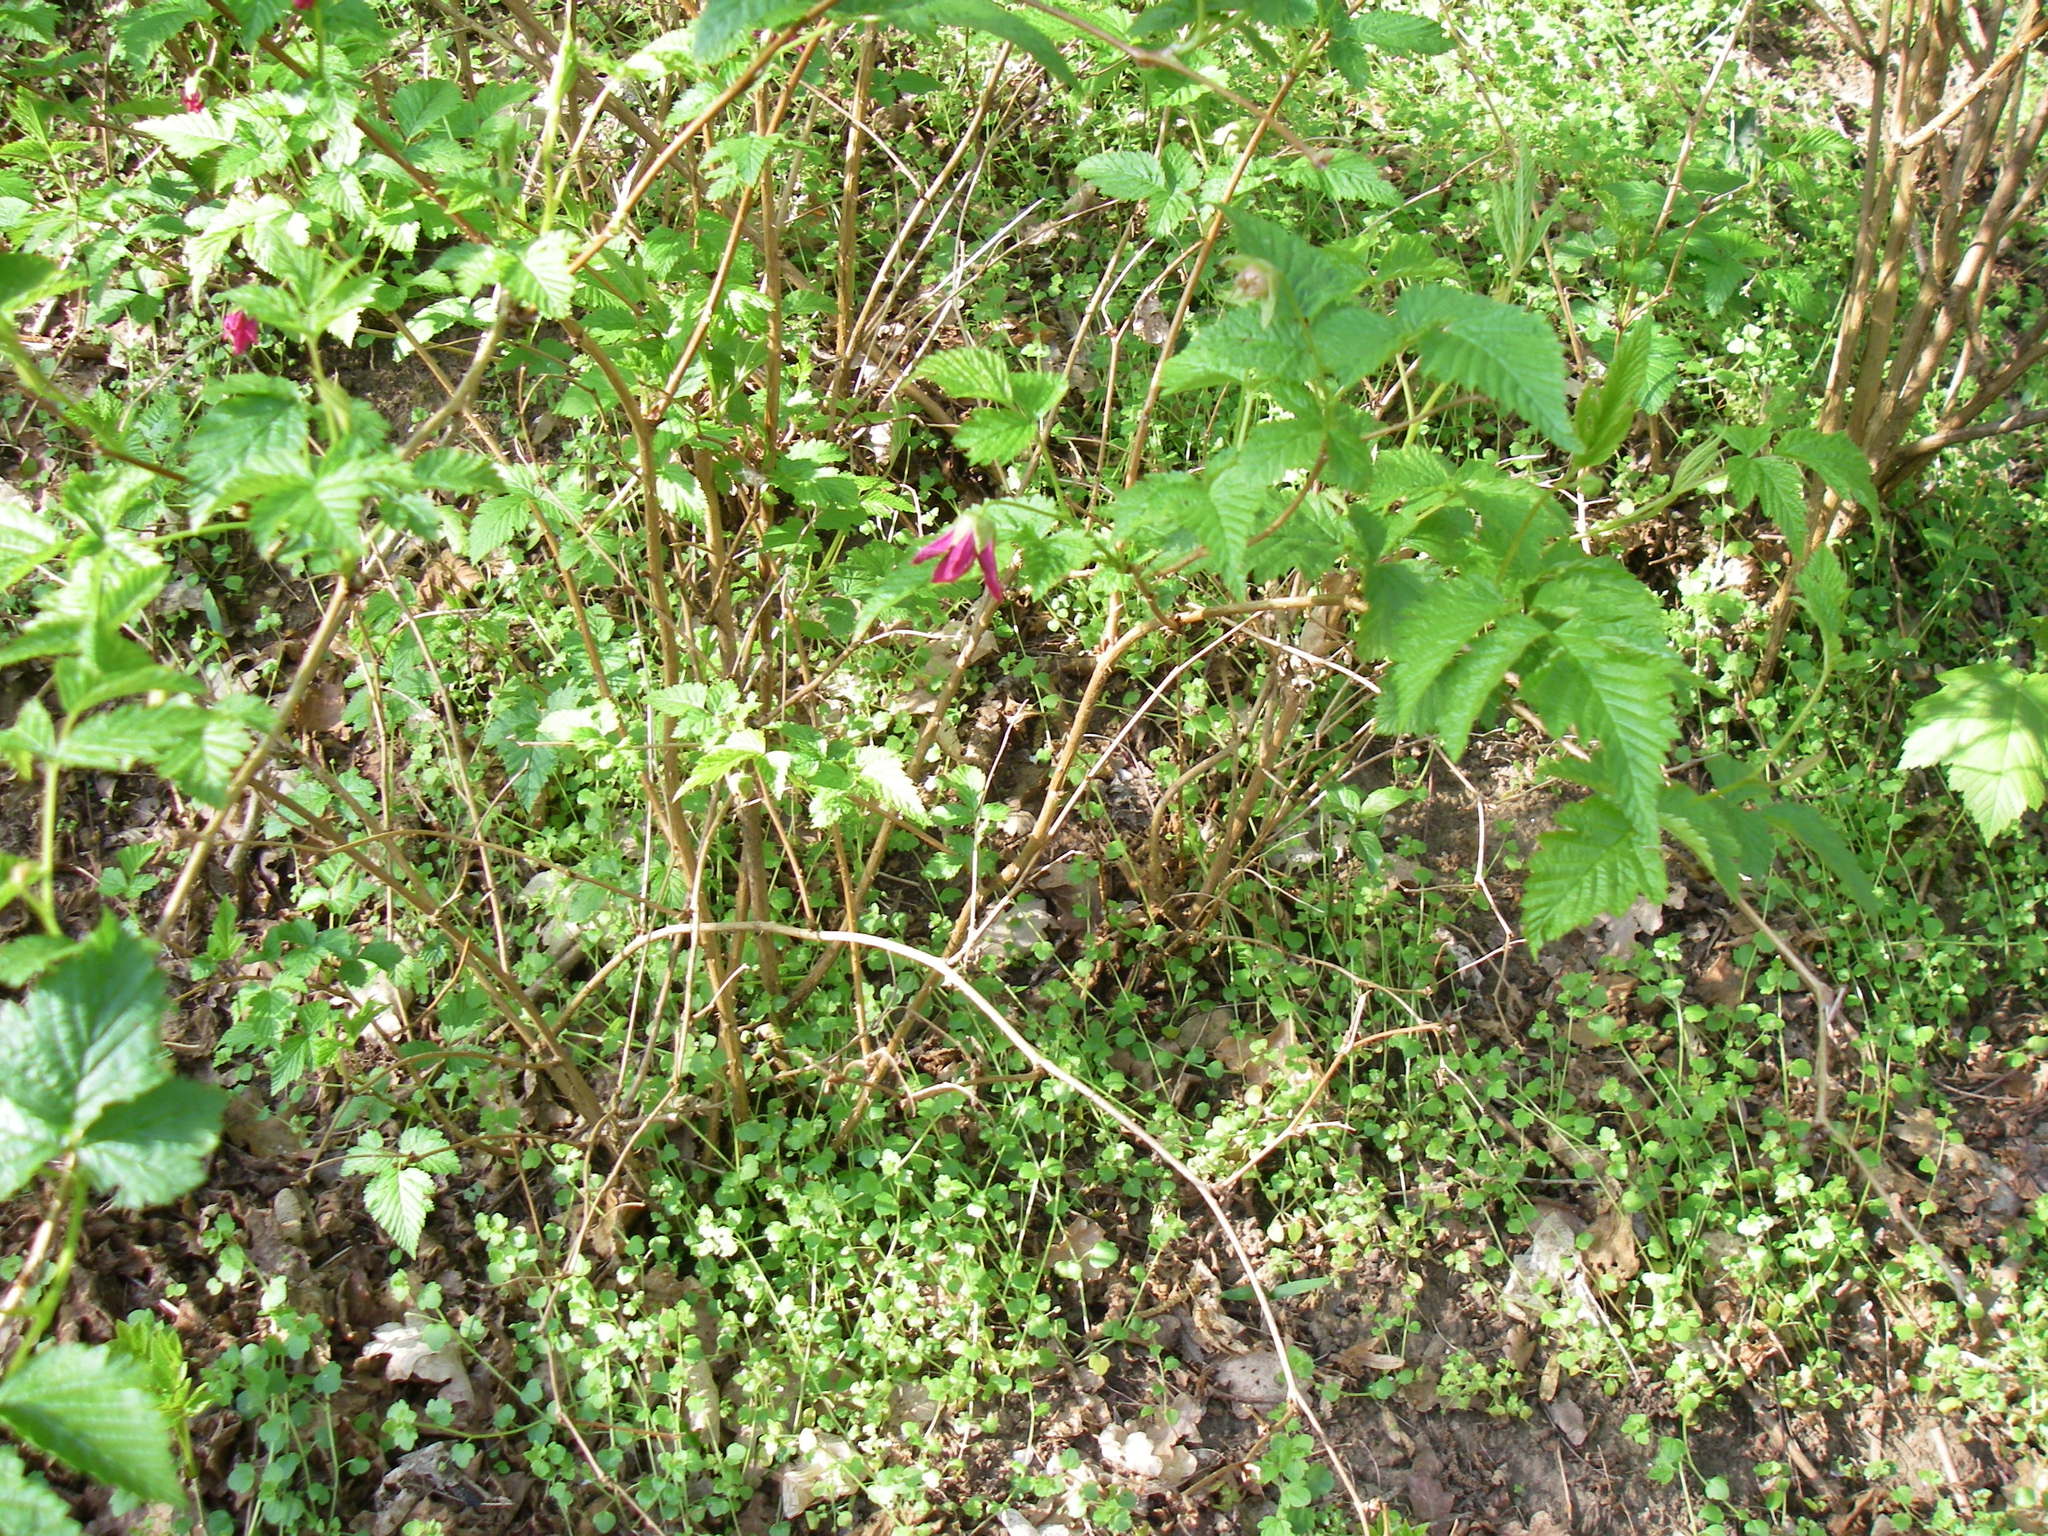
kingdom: Plantae
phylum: Tracheophyta
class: Magnoliopsida
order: Rosales
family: Rosaceae
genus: Rubus
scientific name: Rubus spectabilis
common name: Salmonberry
